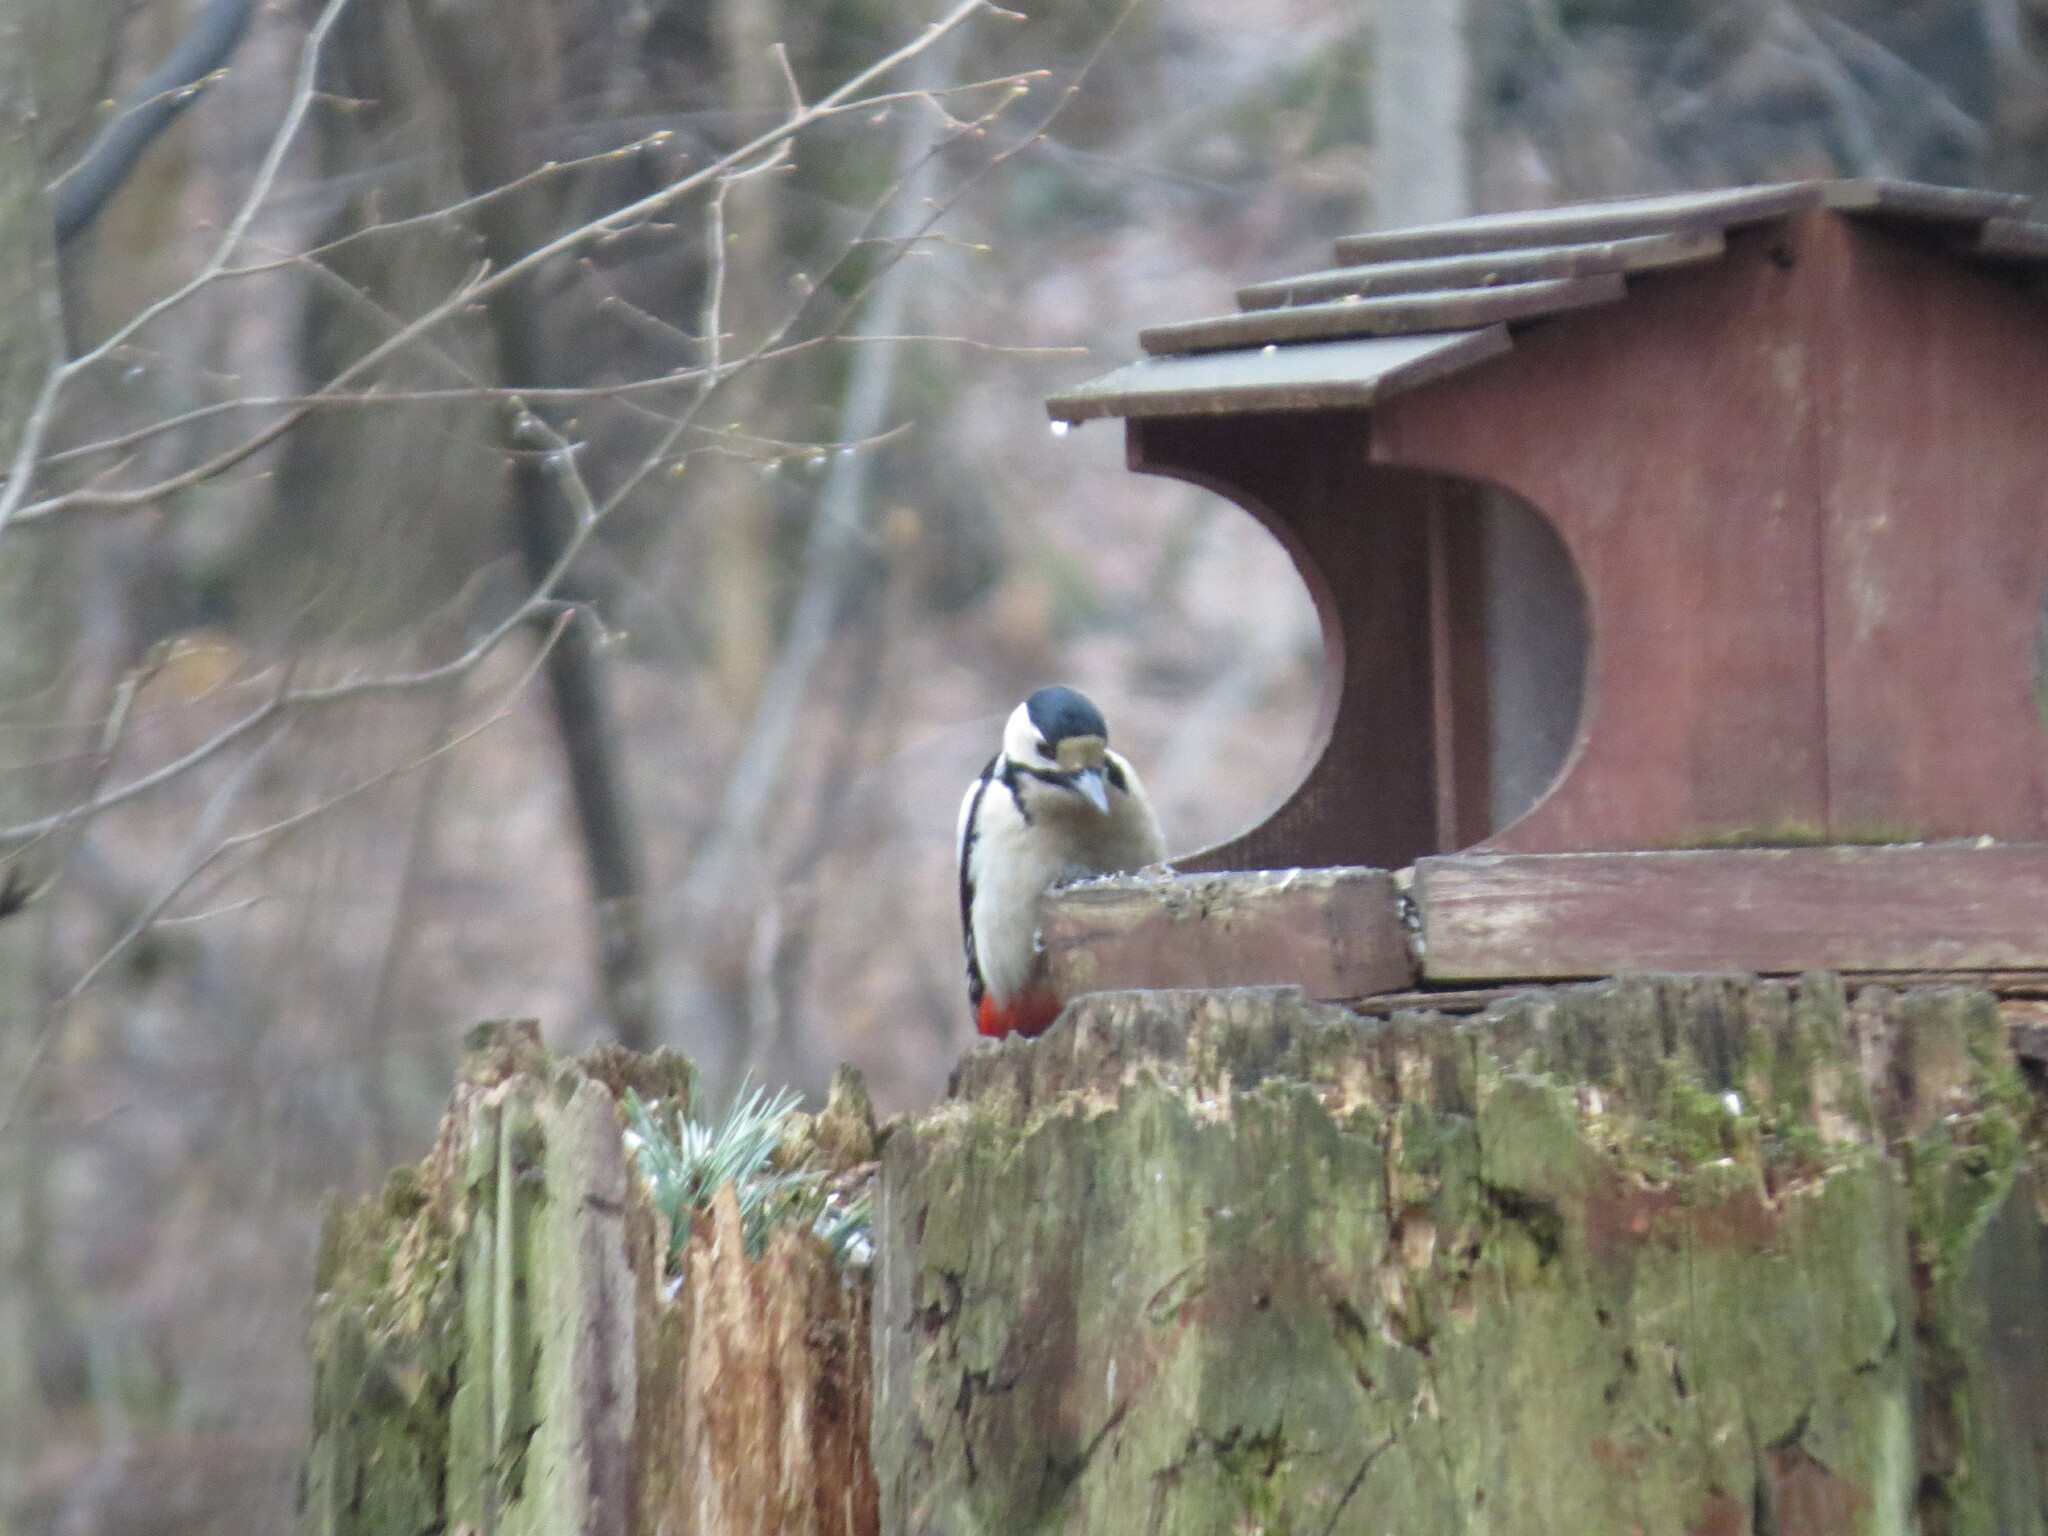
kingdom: Animalia
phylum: Chordata
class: Aves
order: Piciformes
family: Picidae
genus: Dendrocopos
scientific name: Dendrocopos major
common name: Great spotted woodpecker
